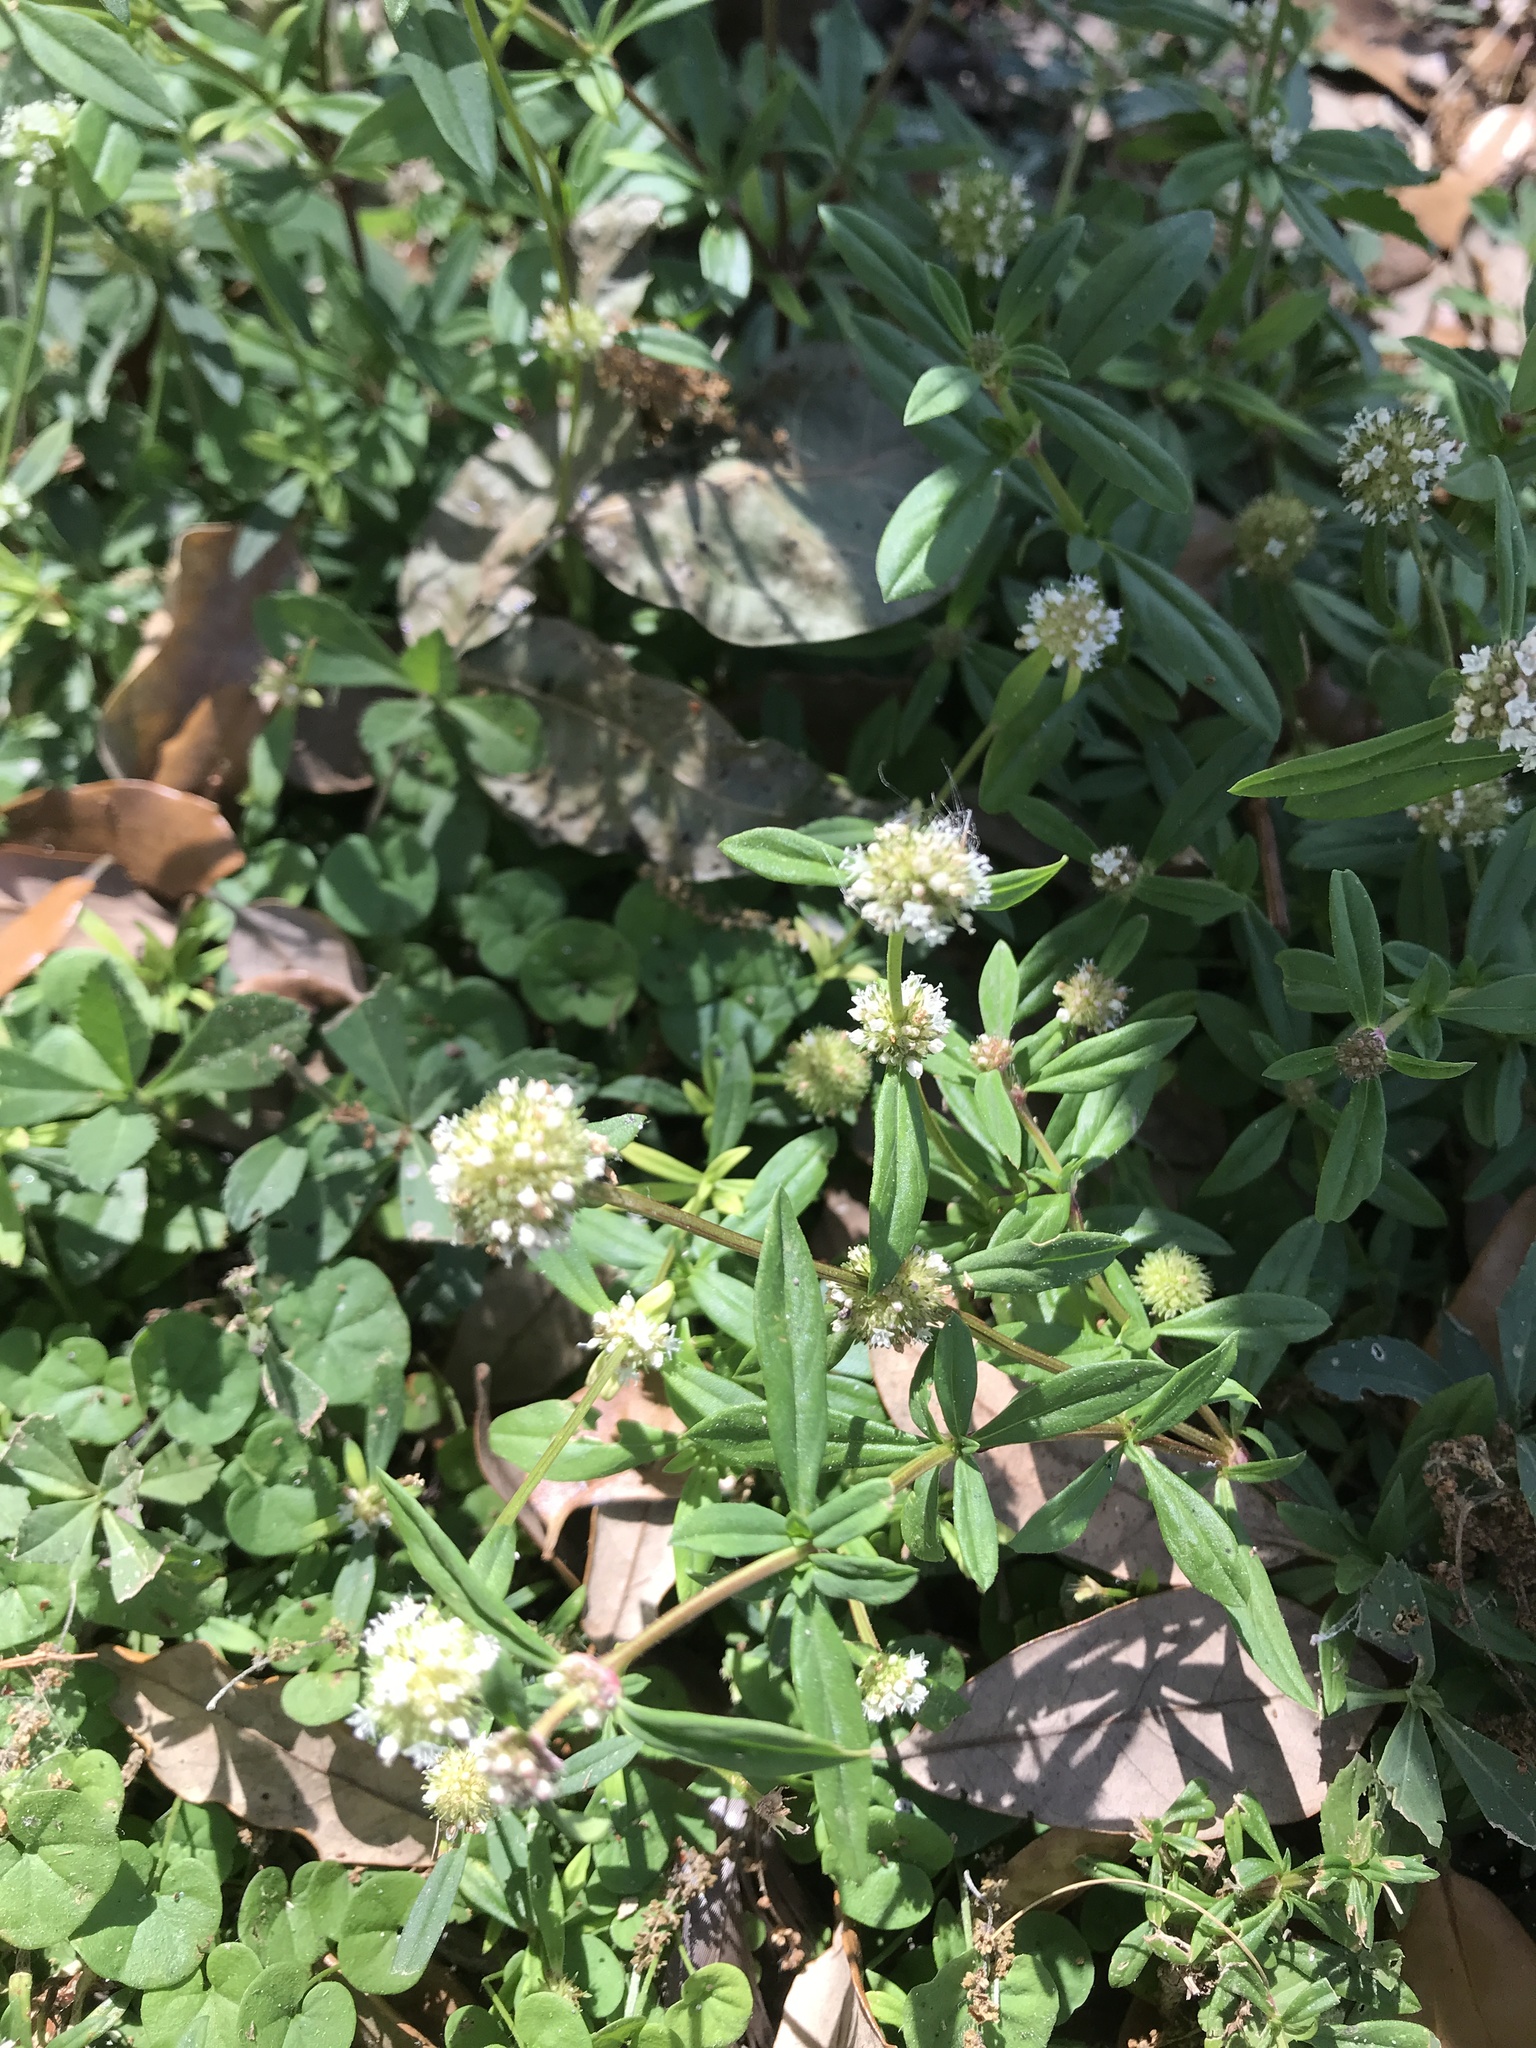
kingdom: Plantae
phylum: Tracheophyta
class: Magnoliopsida
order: Gentianales
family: Rubiaceae
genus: Spermacoce
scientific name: Spermacoce verticillata
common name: Shrubby false buttonweed
